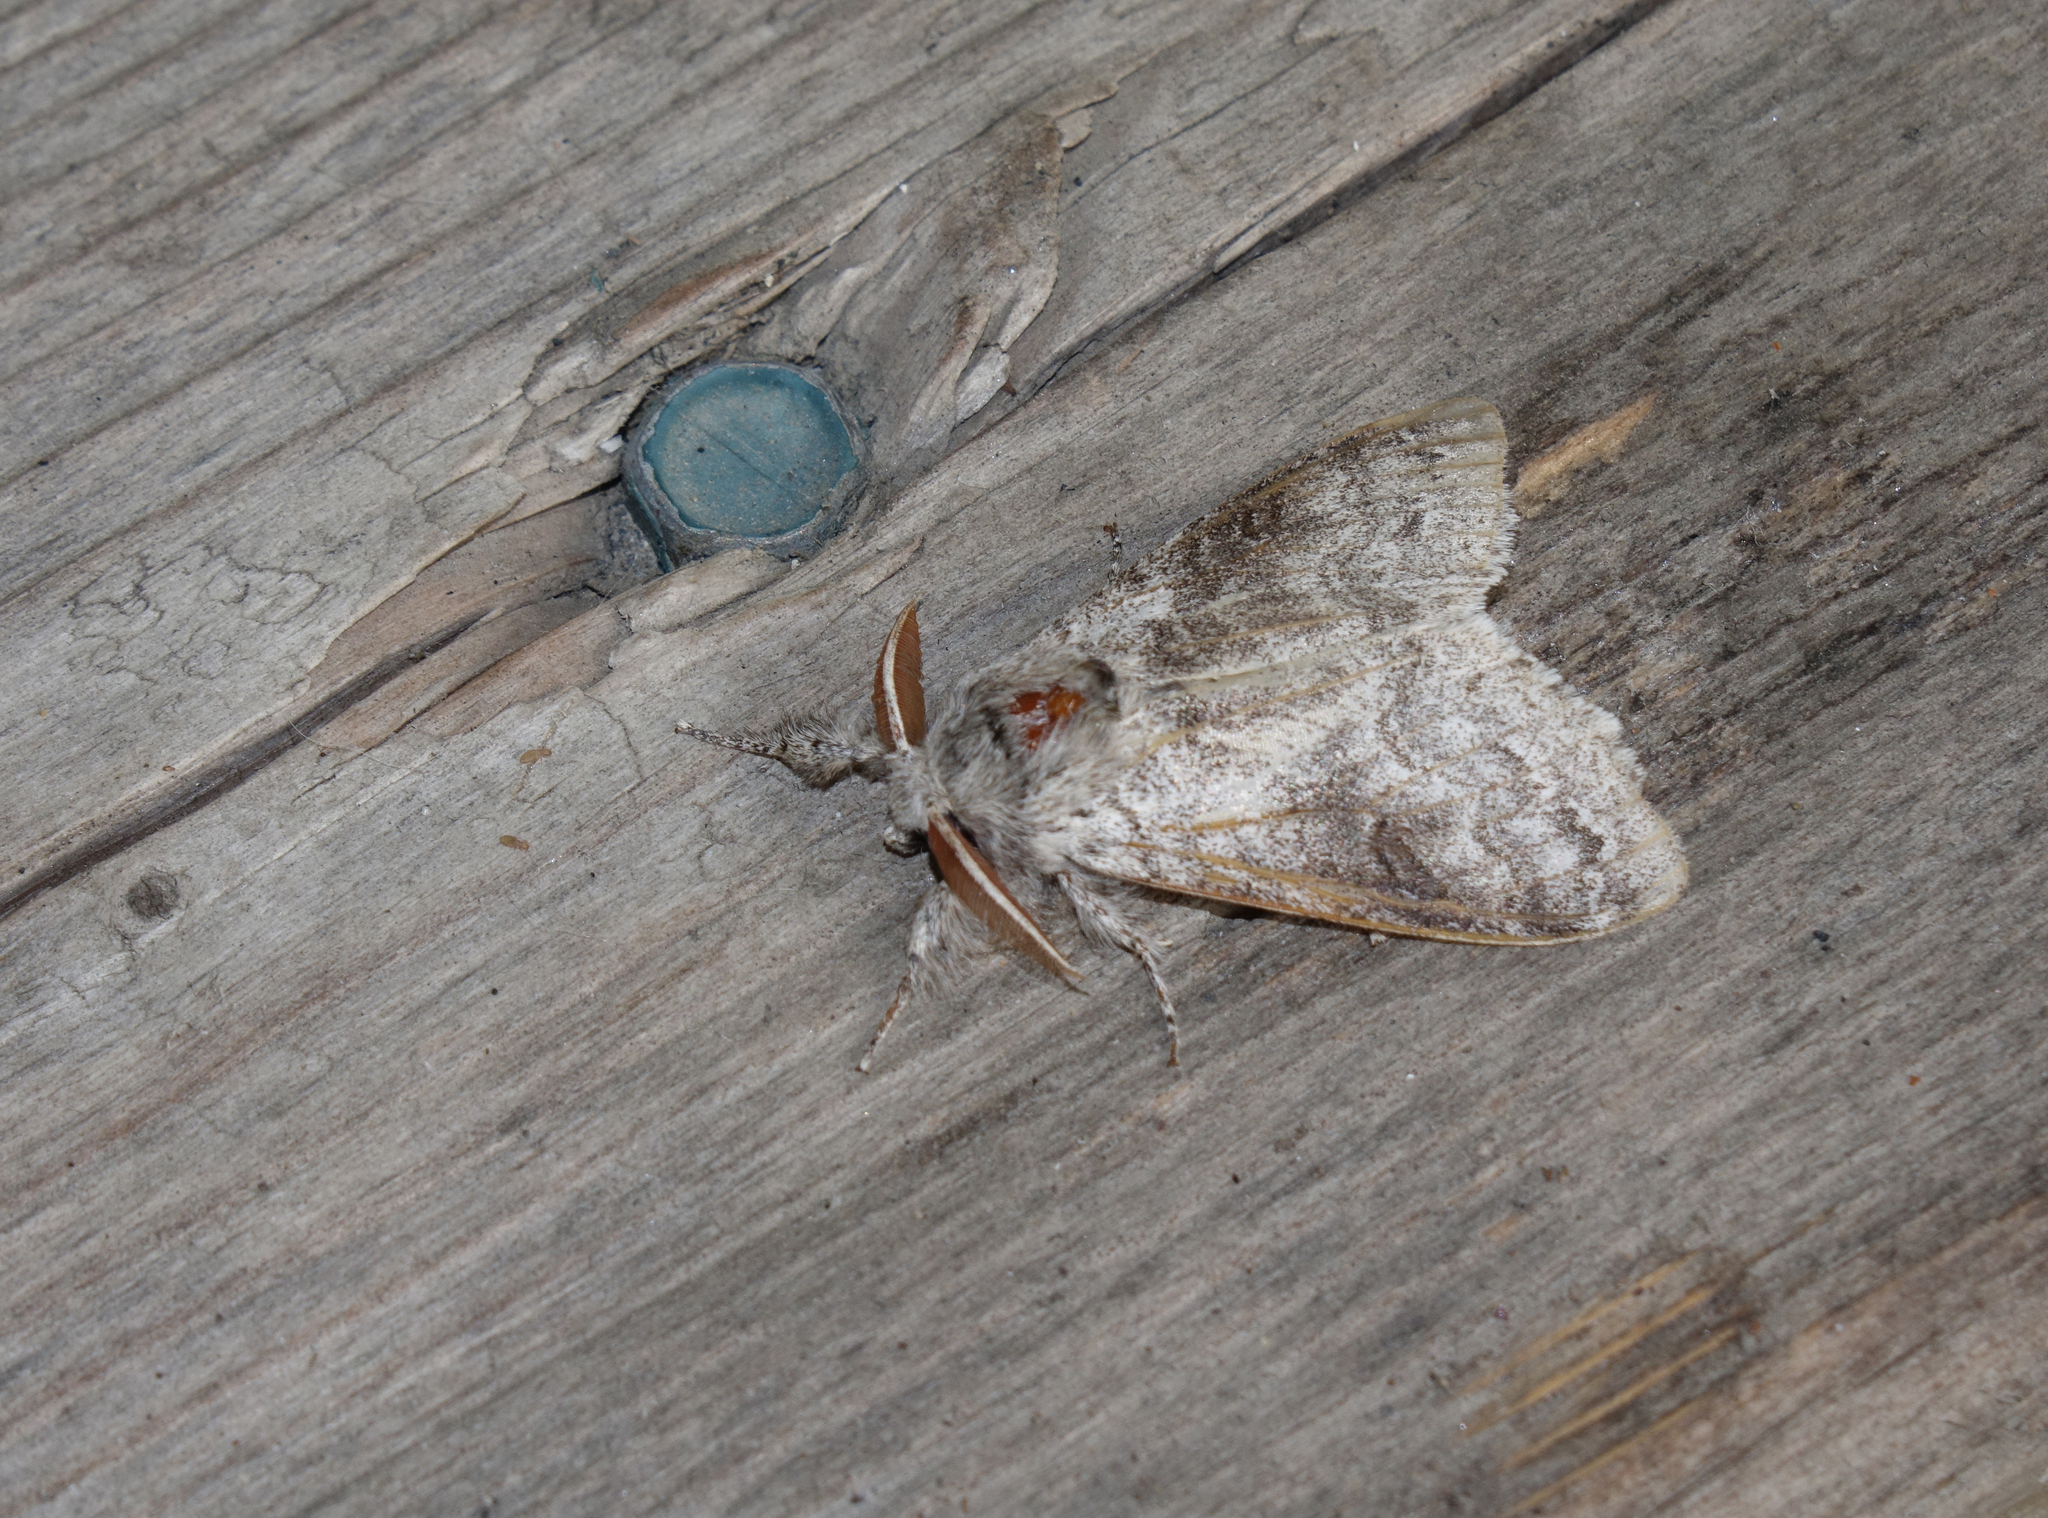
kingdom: Animalia
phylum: Arthropoda
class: Insecta
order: Lepidoptera
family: Erebidae
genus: Calliteara
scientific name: Calliteara pudibunda
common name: Pale tussock
